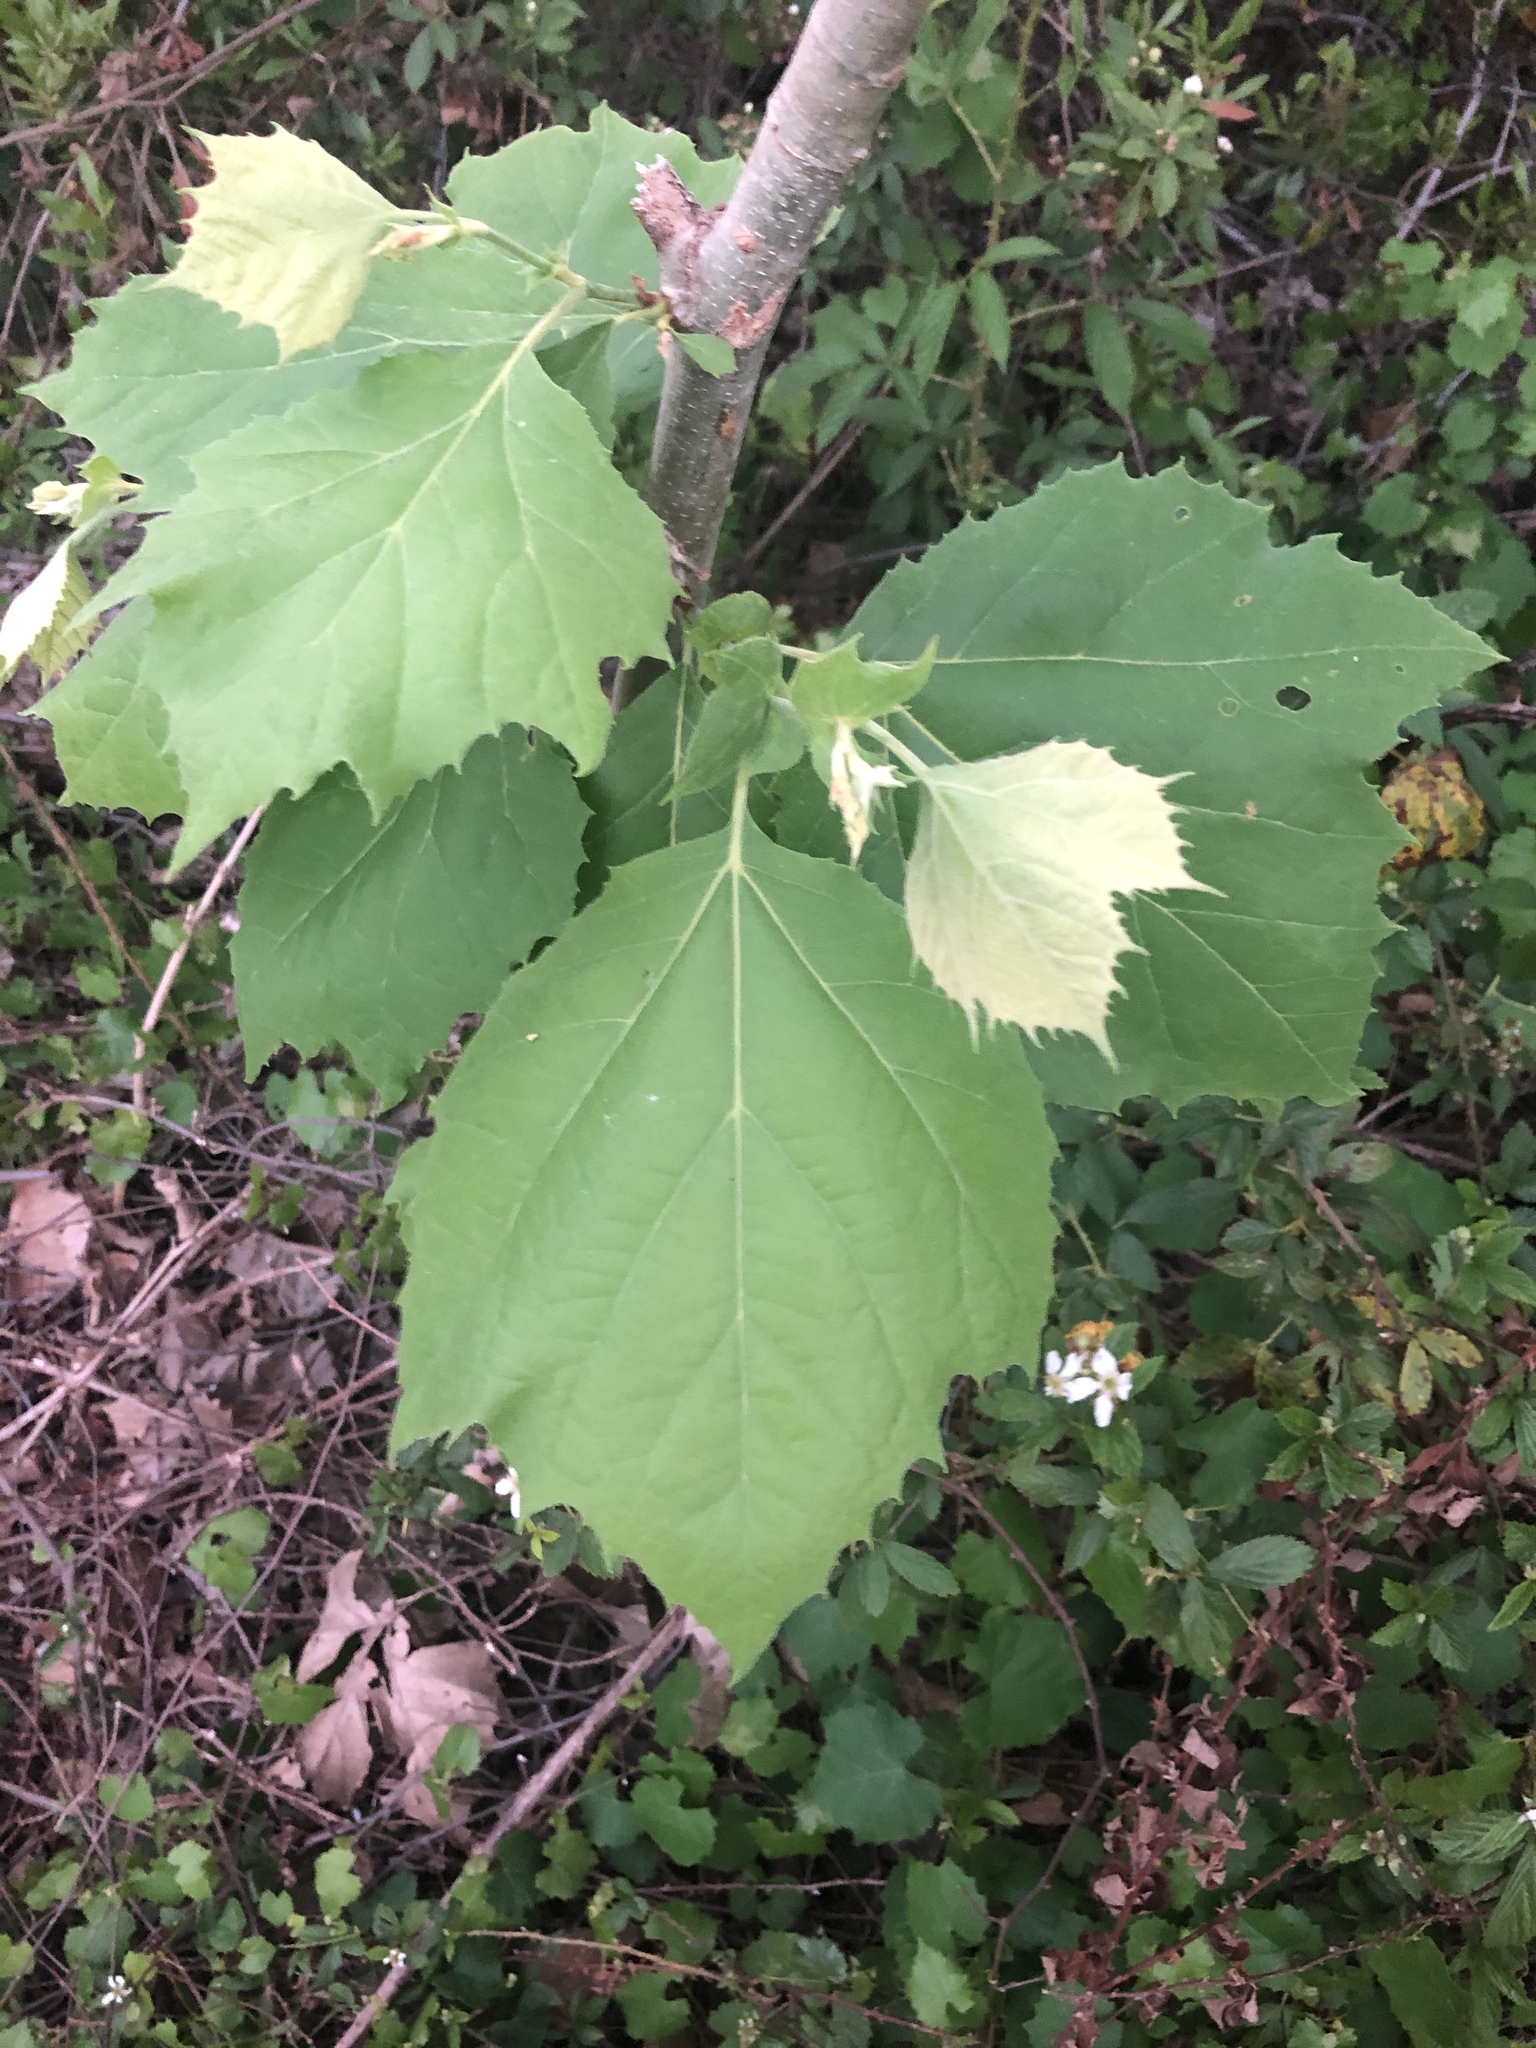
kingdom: Plantae
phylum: Tracheophyta
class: Magnoliopsida
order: Proteales
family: Platanaceae
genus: Platanus
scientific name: Platanus occidentalis
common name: American sycamore
